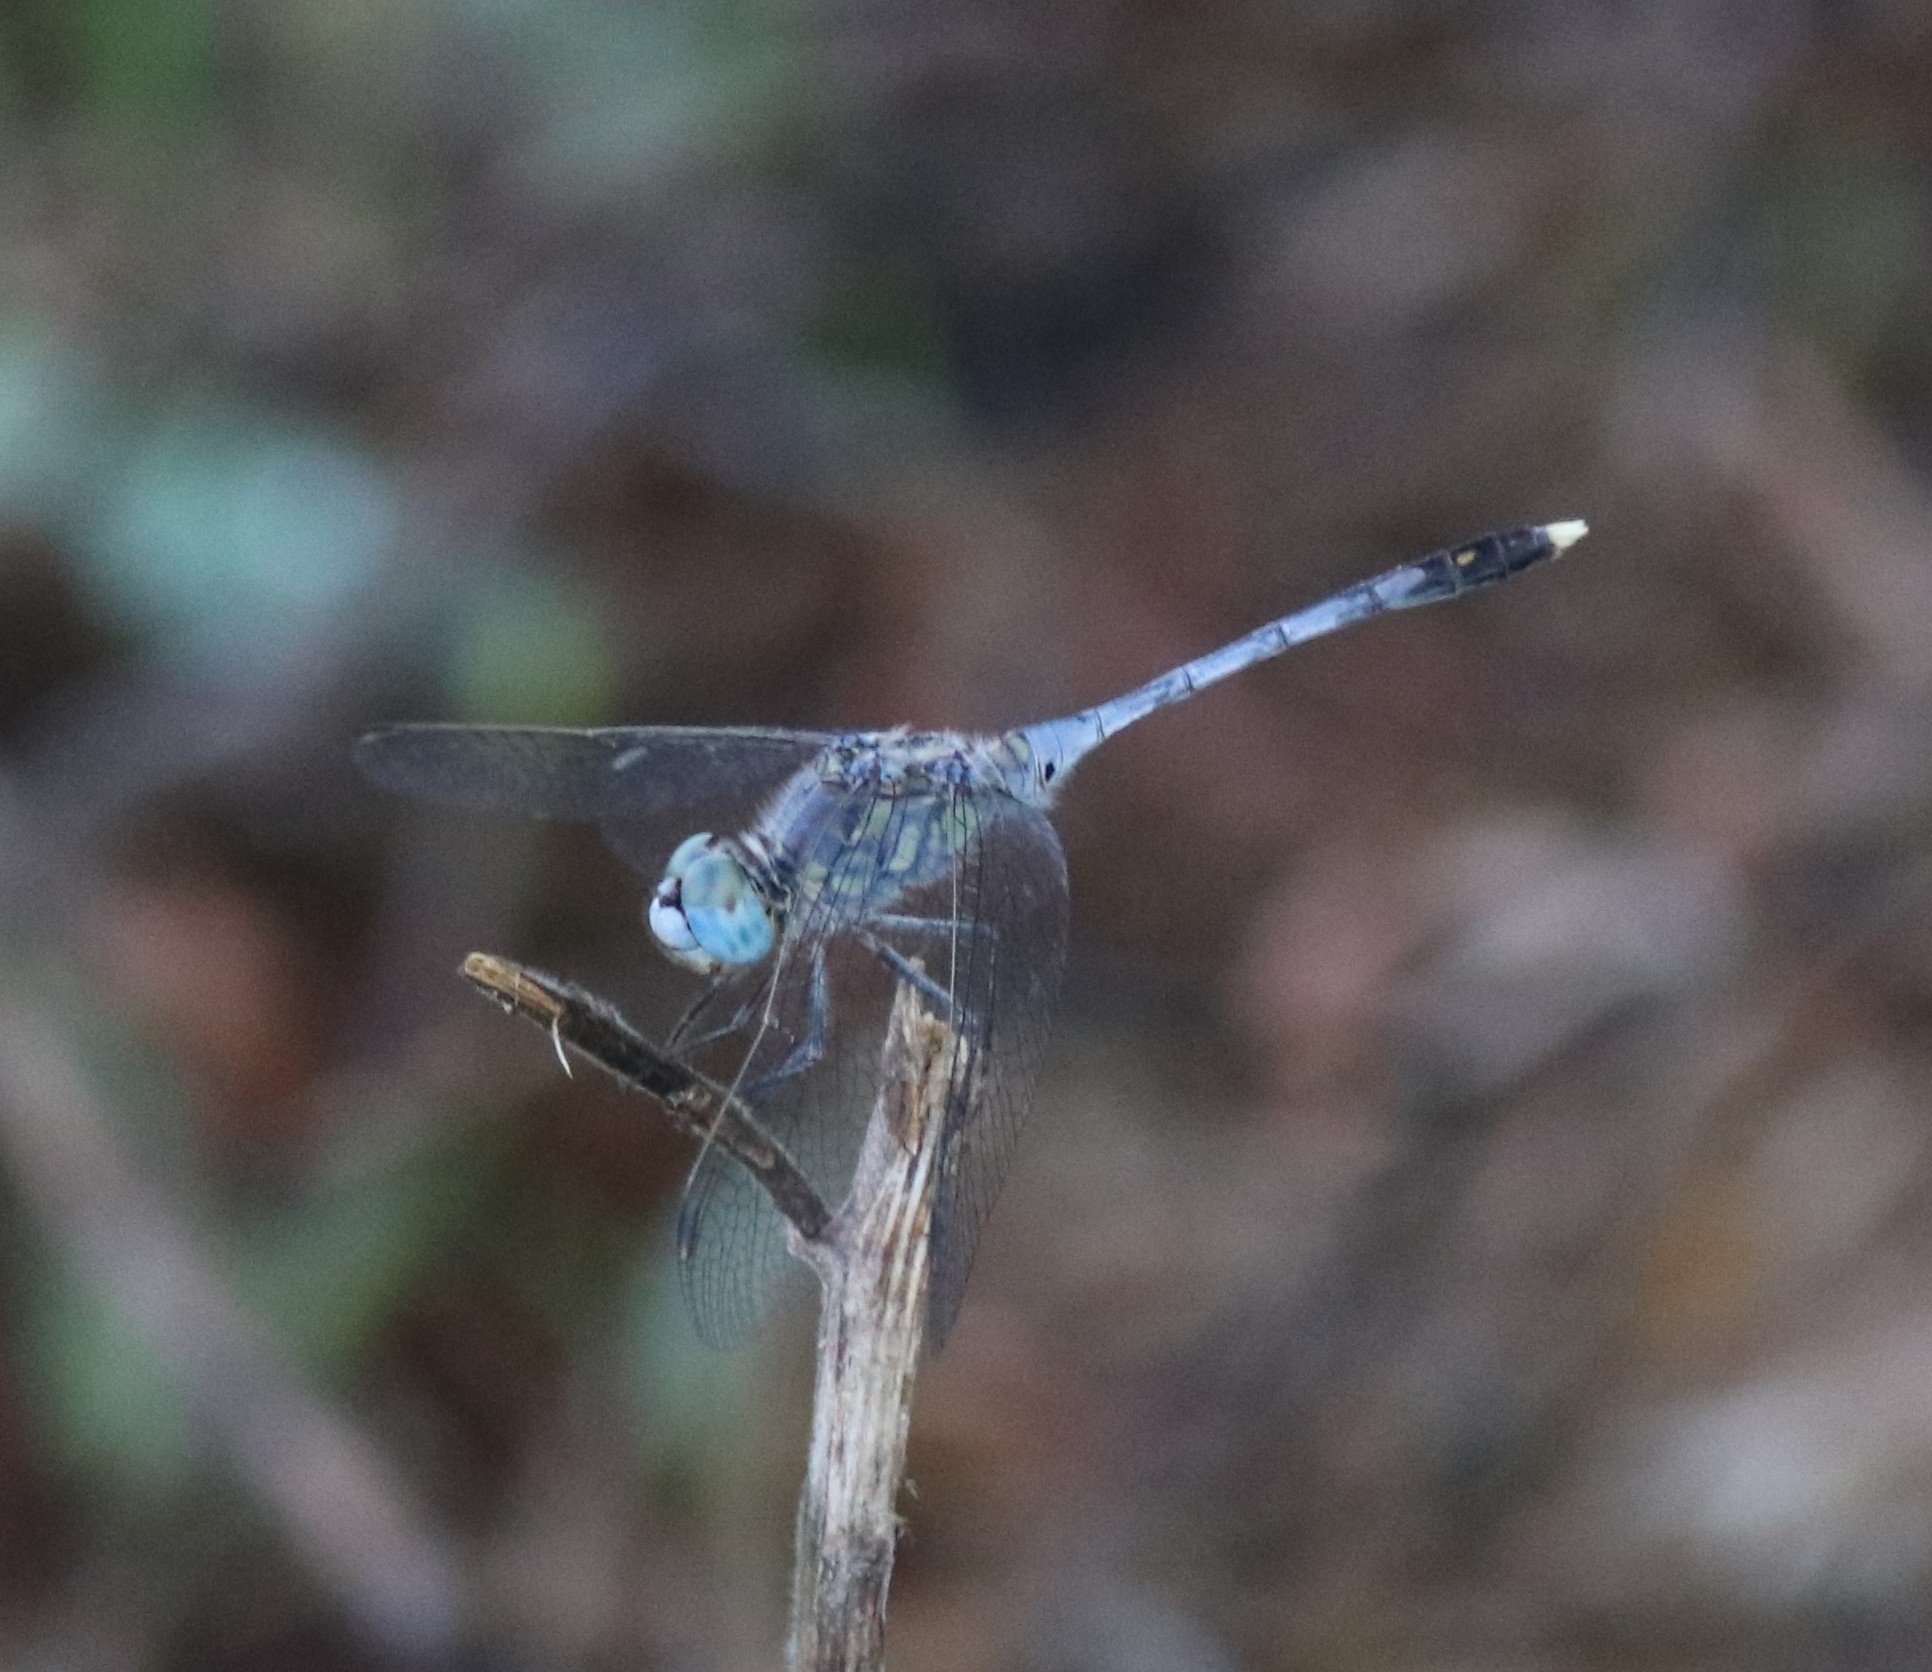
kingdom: Animalia
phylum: Arthropoda
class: Insecta
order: Odonata
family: Libellulidae
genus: Diplacodes
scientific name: Diplacodes trivialis
